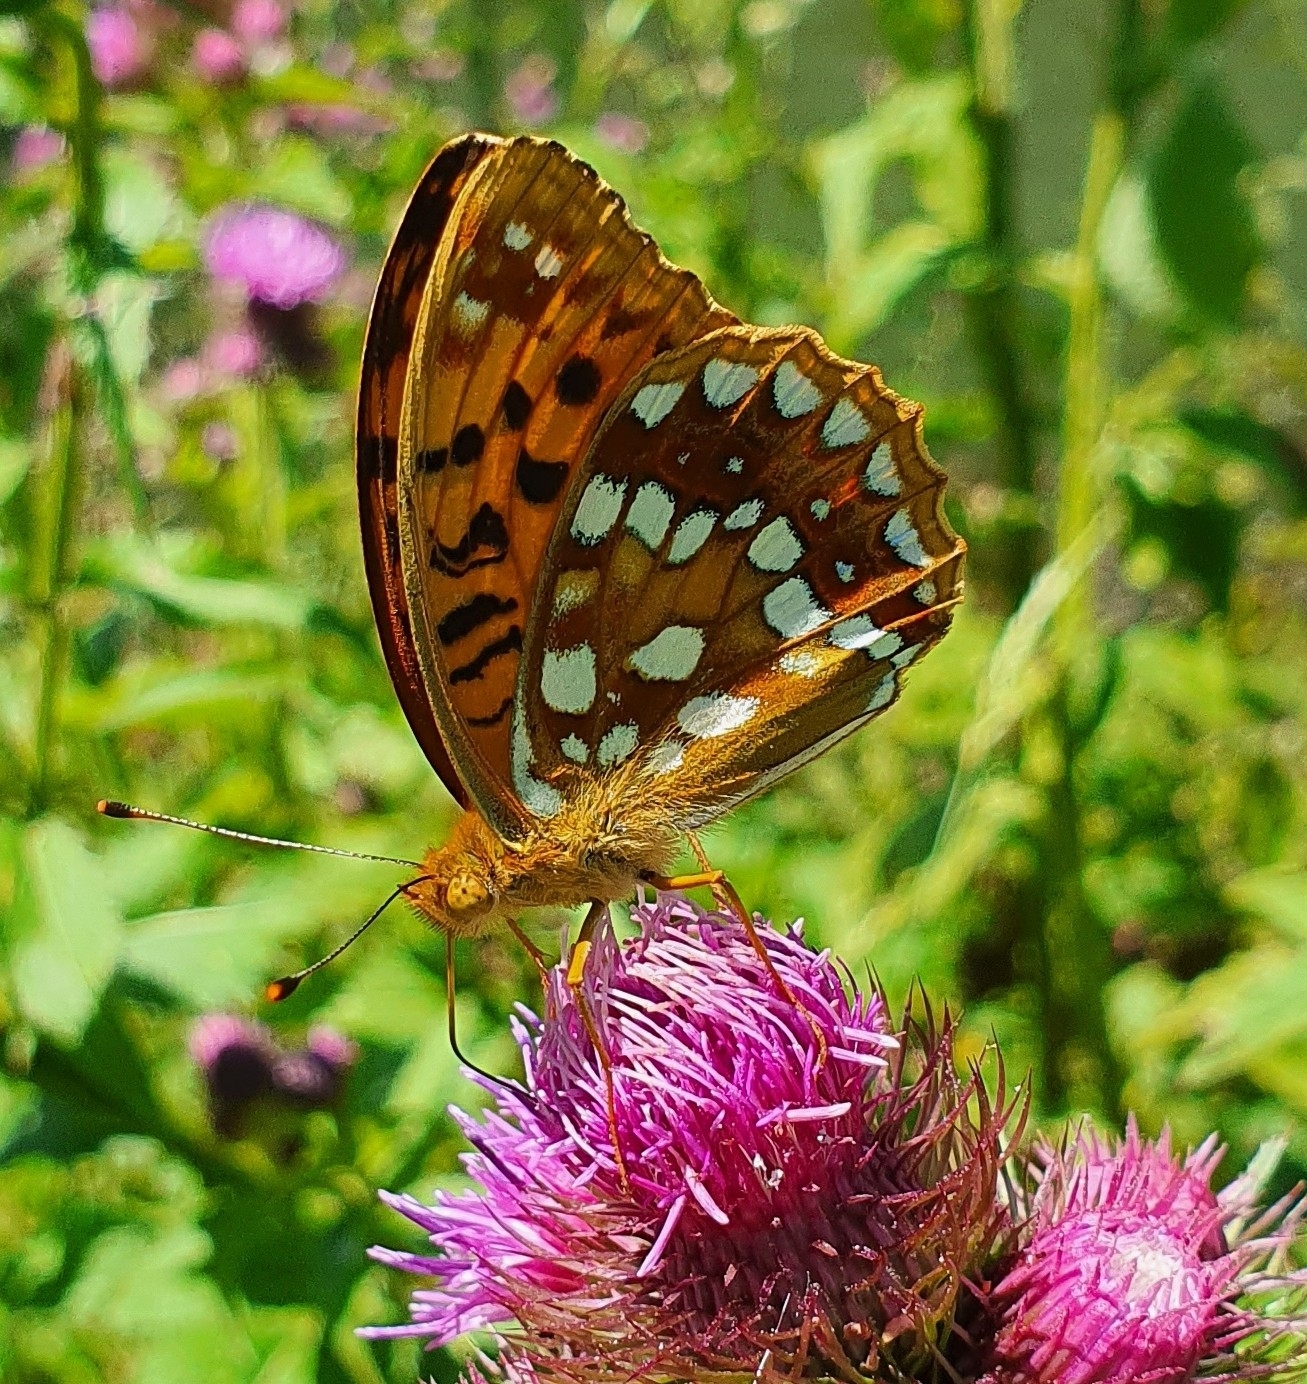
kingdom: Animalia
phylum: Arthropoda
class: Insecta
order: Lepidoptera
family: Nymphalidae
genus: Fabriciana
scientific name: Fabriciana adippe
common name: High brown fritillary
